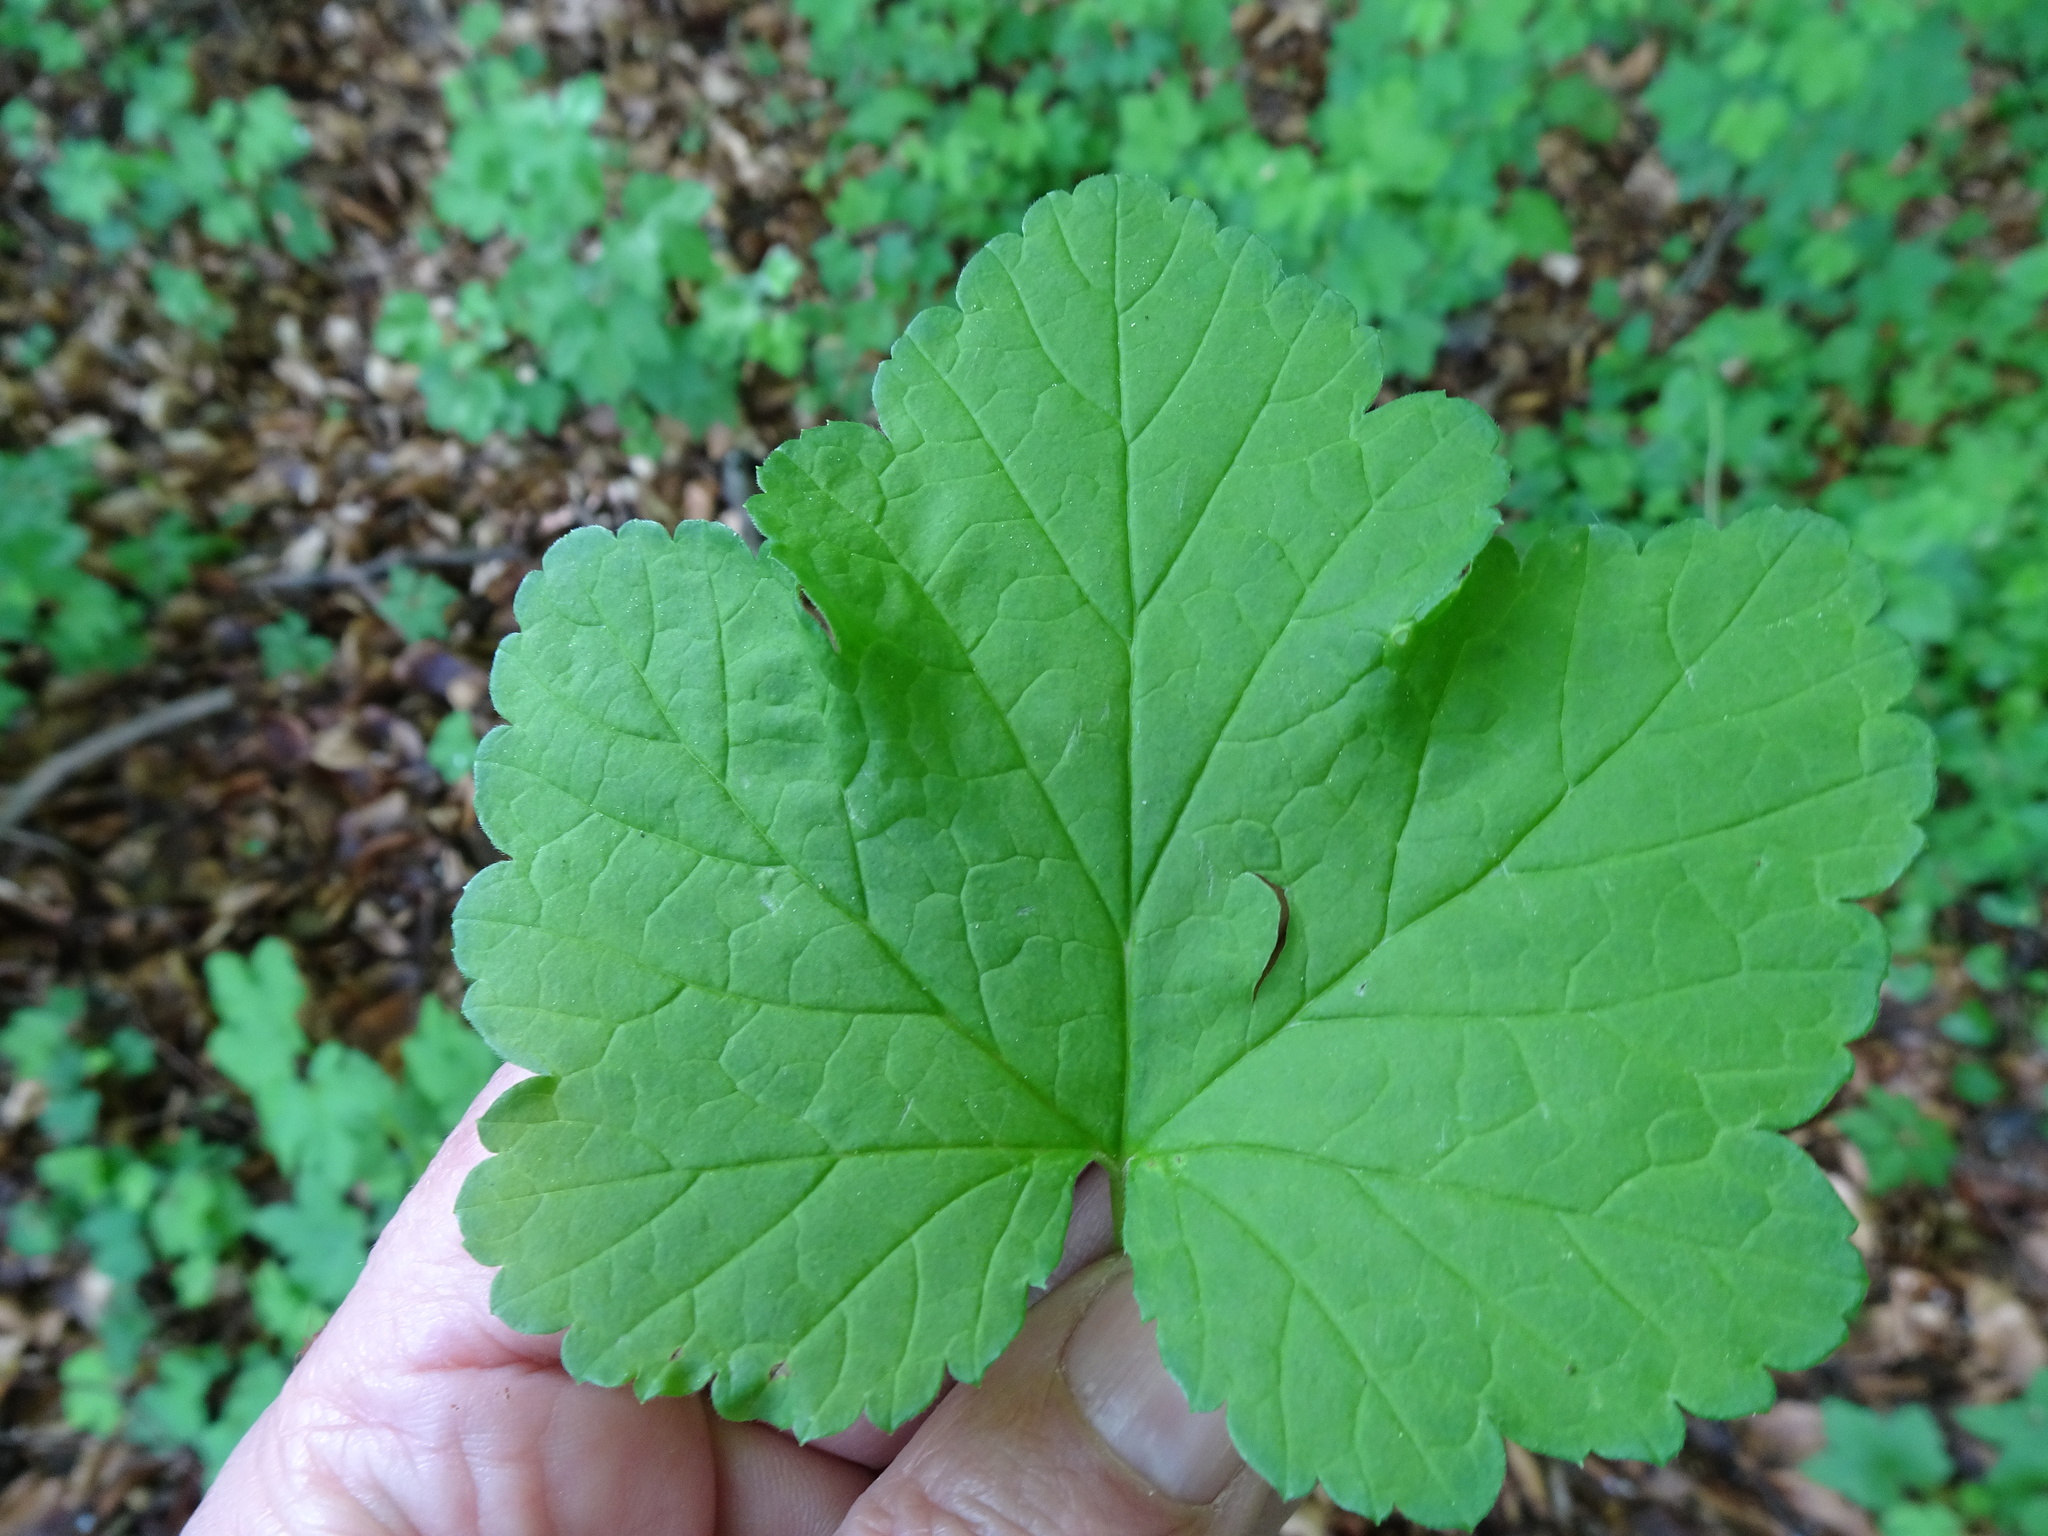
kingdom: Plantae
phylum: Tracheophyta
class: Magnoliopsida
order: Saxifragales
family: Grossulariaceae
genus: Ribes
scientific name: Ribes rubrum
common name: Red currant
